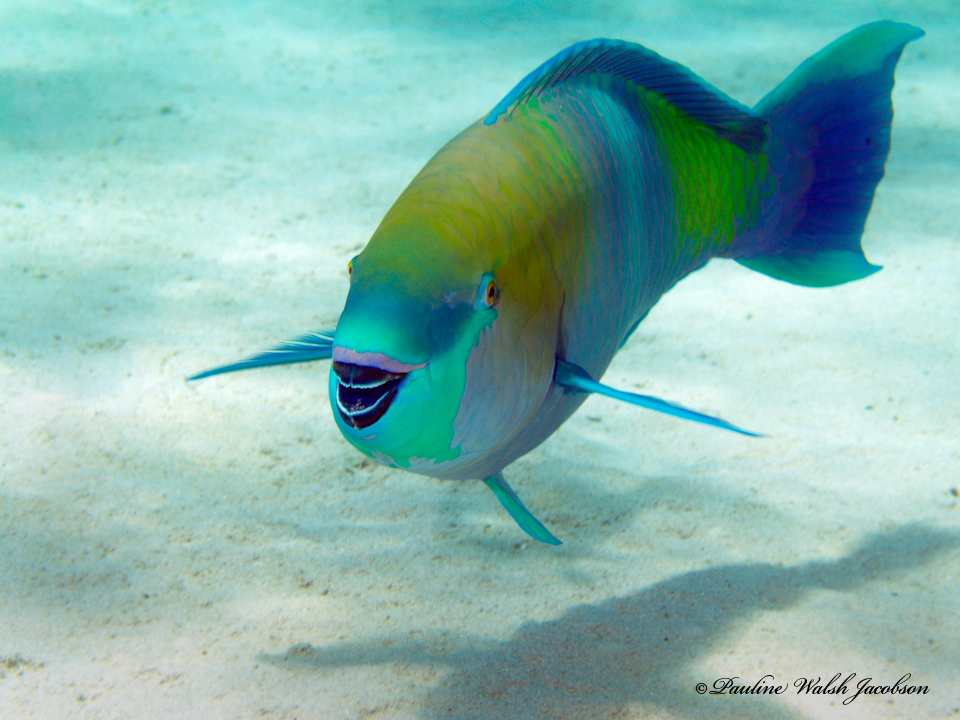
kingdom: Animalia
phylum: Chordata
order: Perciformes
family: Scaridae
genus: Scarus
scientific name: Scarus ferrugineus
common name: Rusty parrotfish
